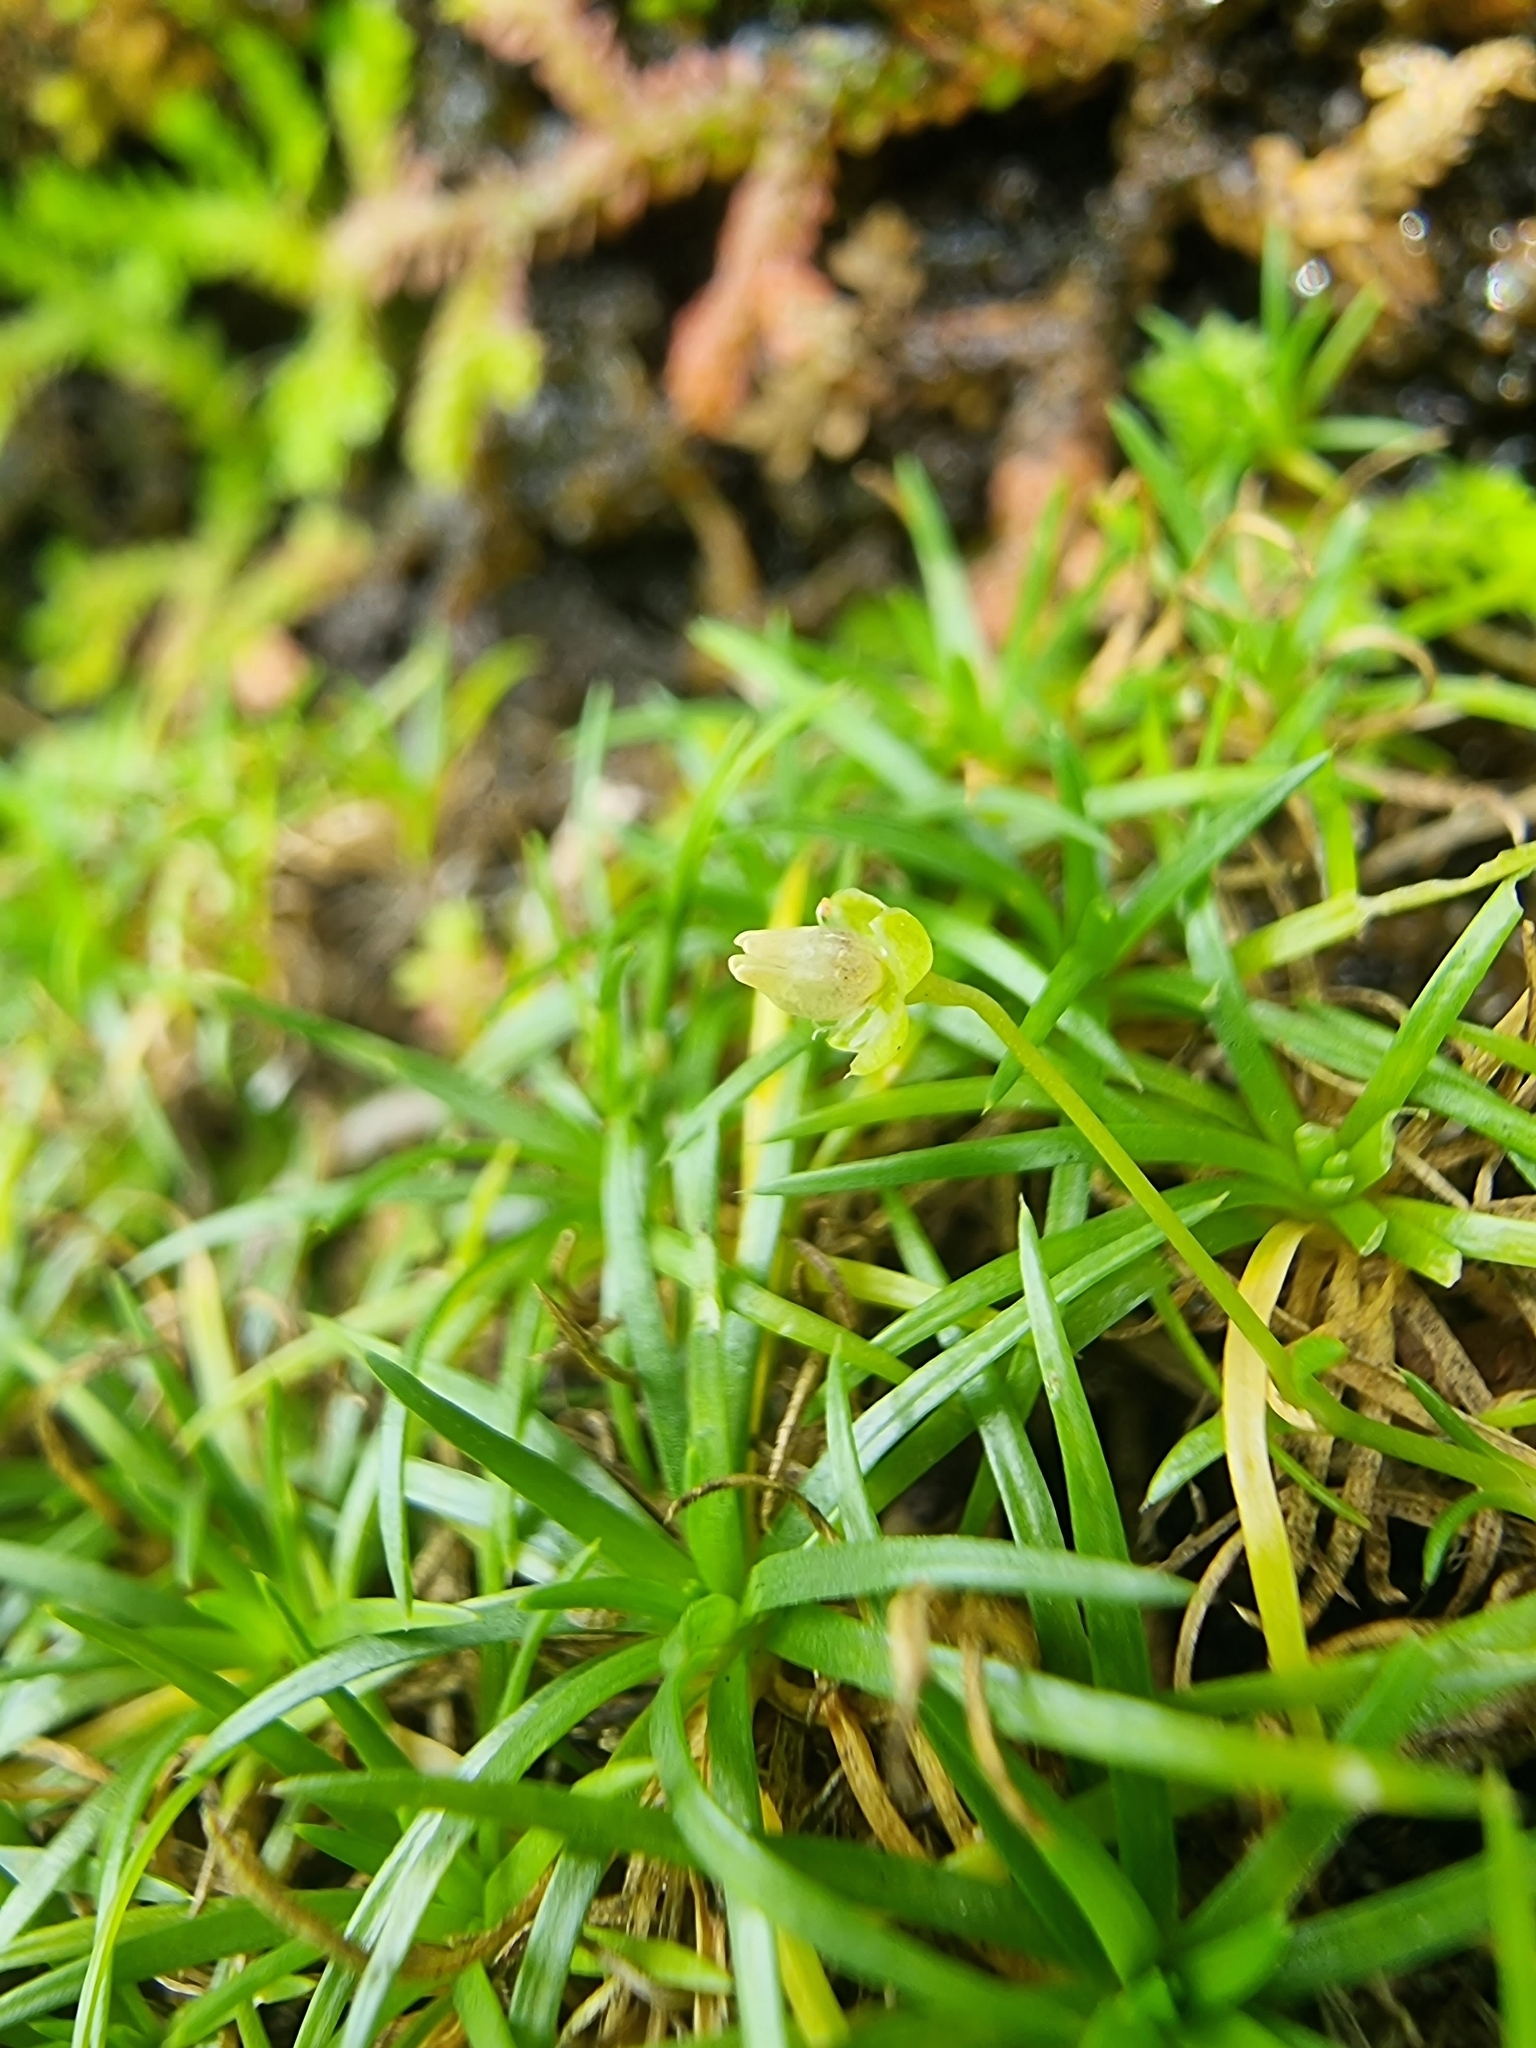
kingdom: Plantae
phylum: Tracheophyta
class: Magnoliopsida
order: Caryophyllales
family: Caryophyllaceae
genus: Sagina
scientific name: Sagina procumbens
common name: Procumbent pearlwort
